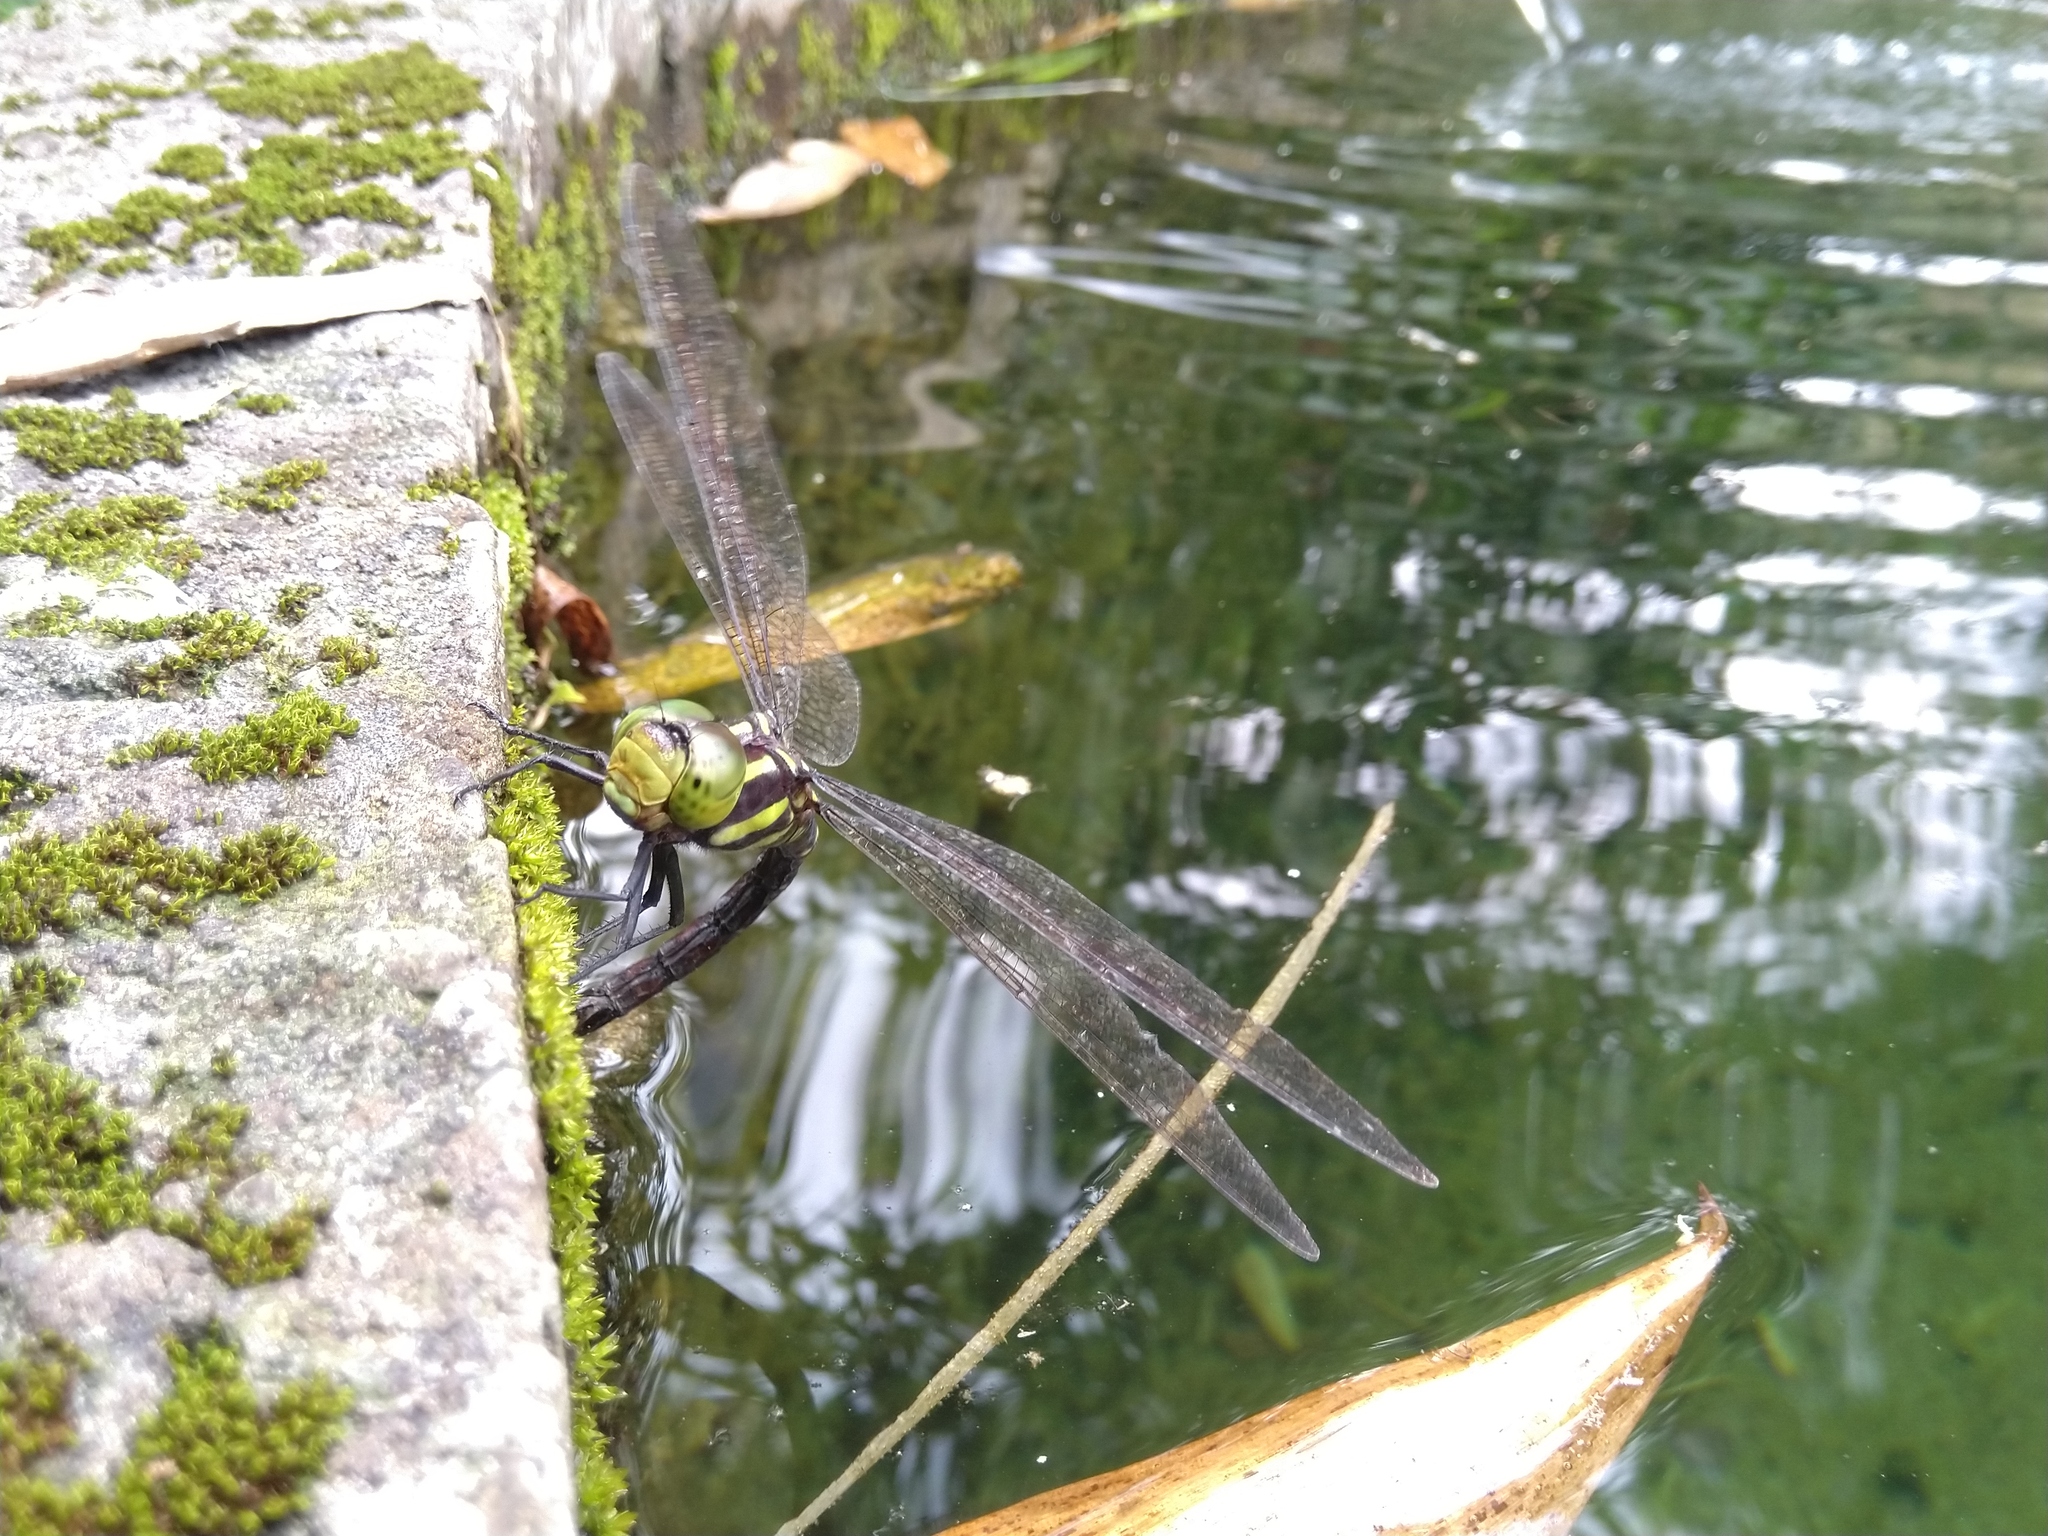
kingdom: Animalia
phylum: Arthropoda
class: Insecta
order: Odonata
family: Aeshnidae
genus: Indaeschna
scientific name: Indaeschna
